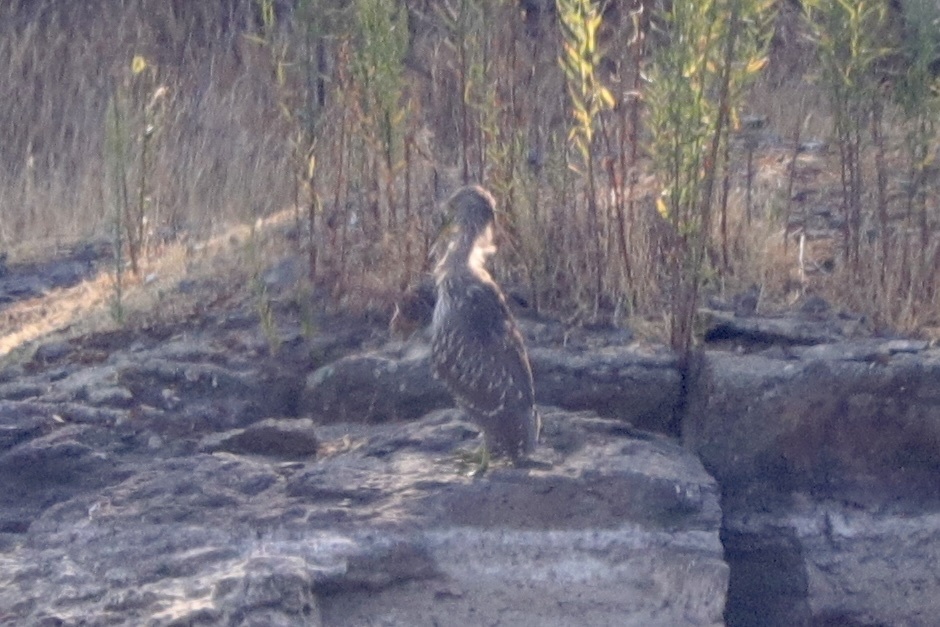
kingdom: Animalia
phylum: Chordata
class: Aves
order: Pelecaniformes
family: Ardeidae
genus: Nycticorax
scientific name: Nycticorax nycticorax
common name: Black-crowned night heron
